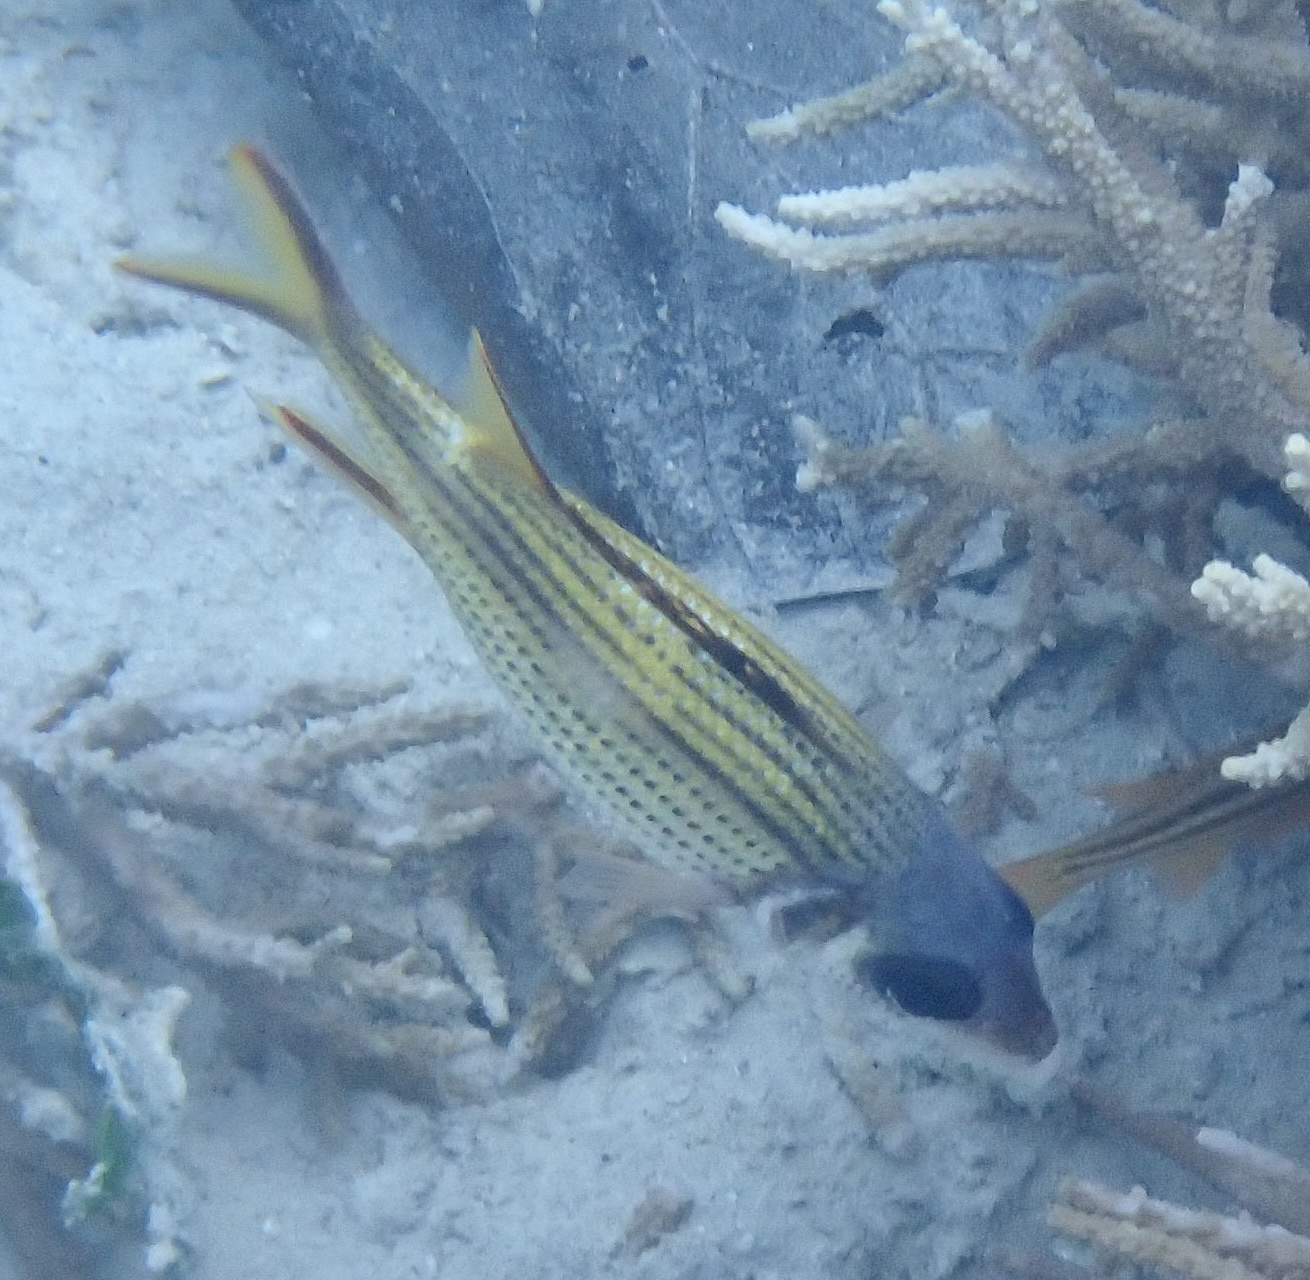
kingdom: Animalia
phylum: Chordata
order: Beryciformes
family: Holocentridae
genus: Neoniphon
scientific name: Neoniphon sammara
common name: Sammara squirrelfish
